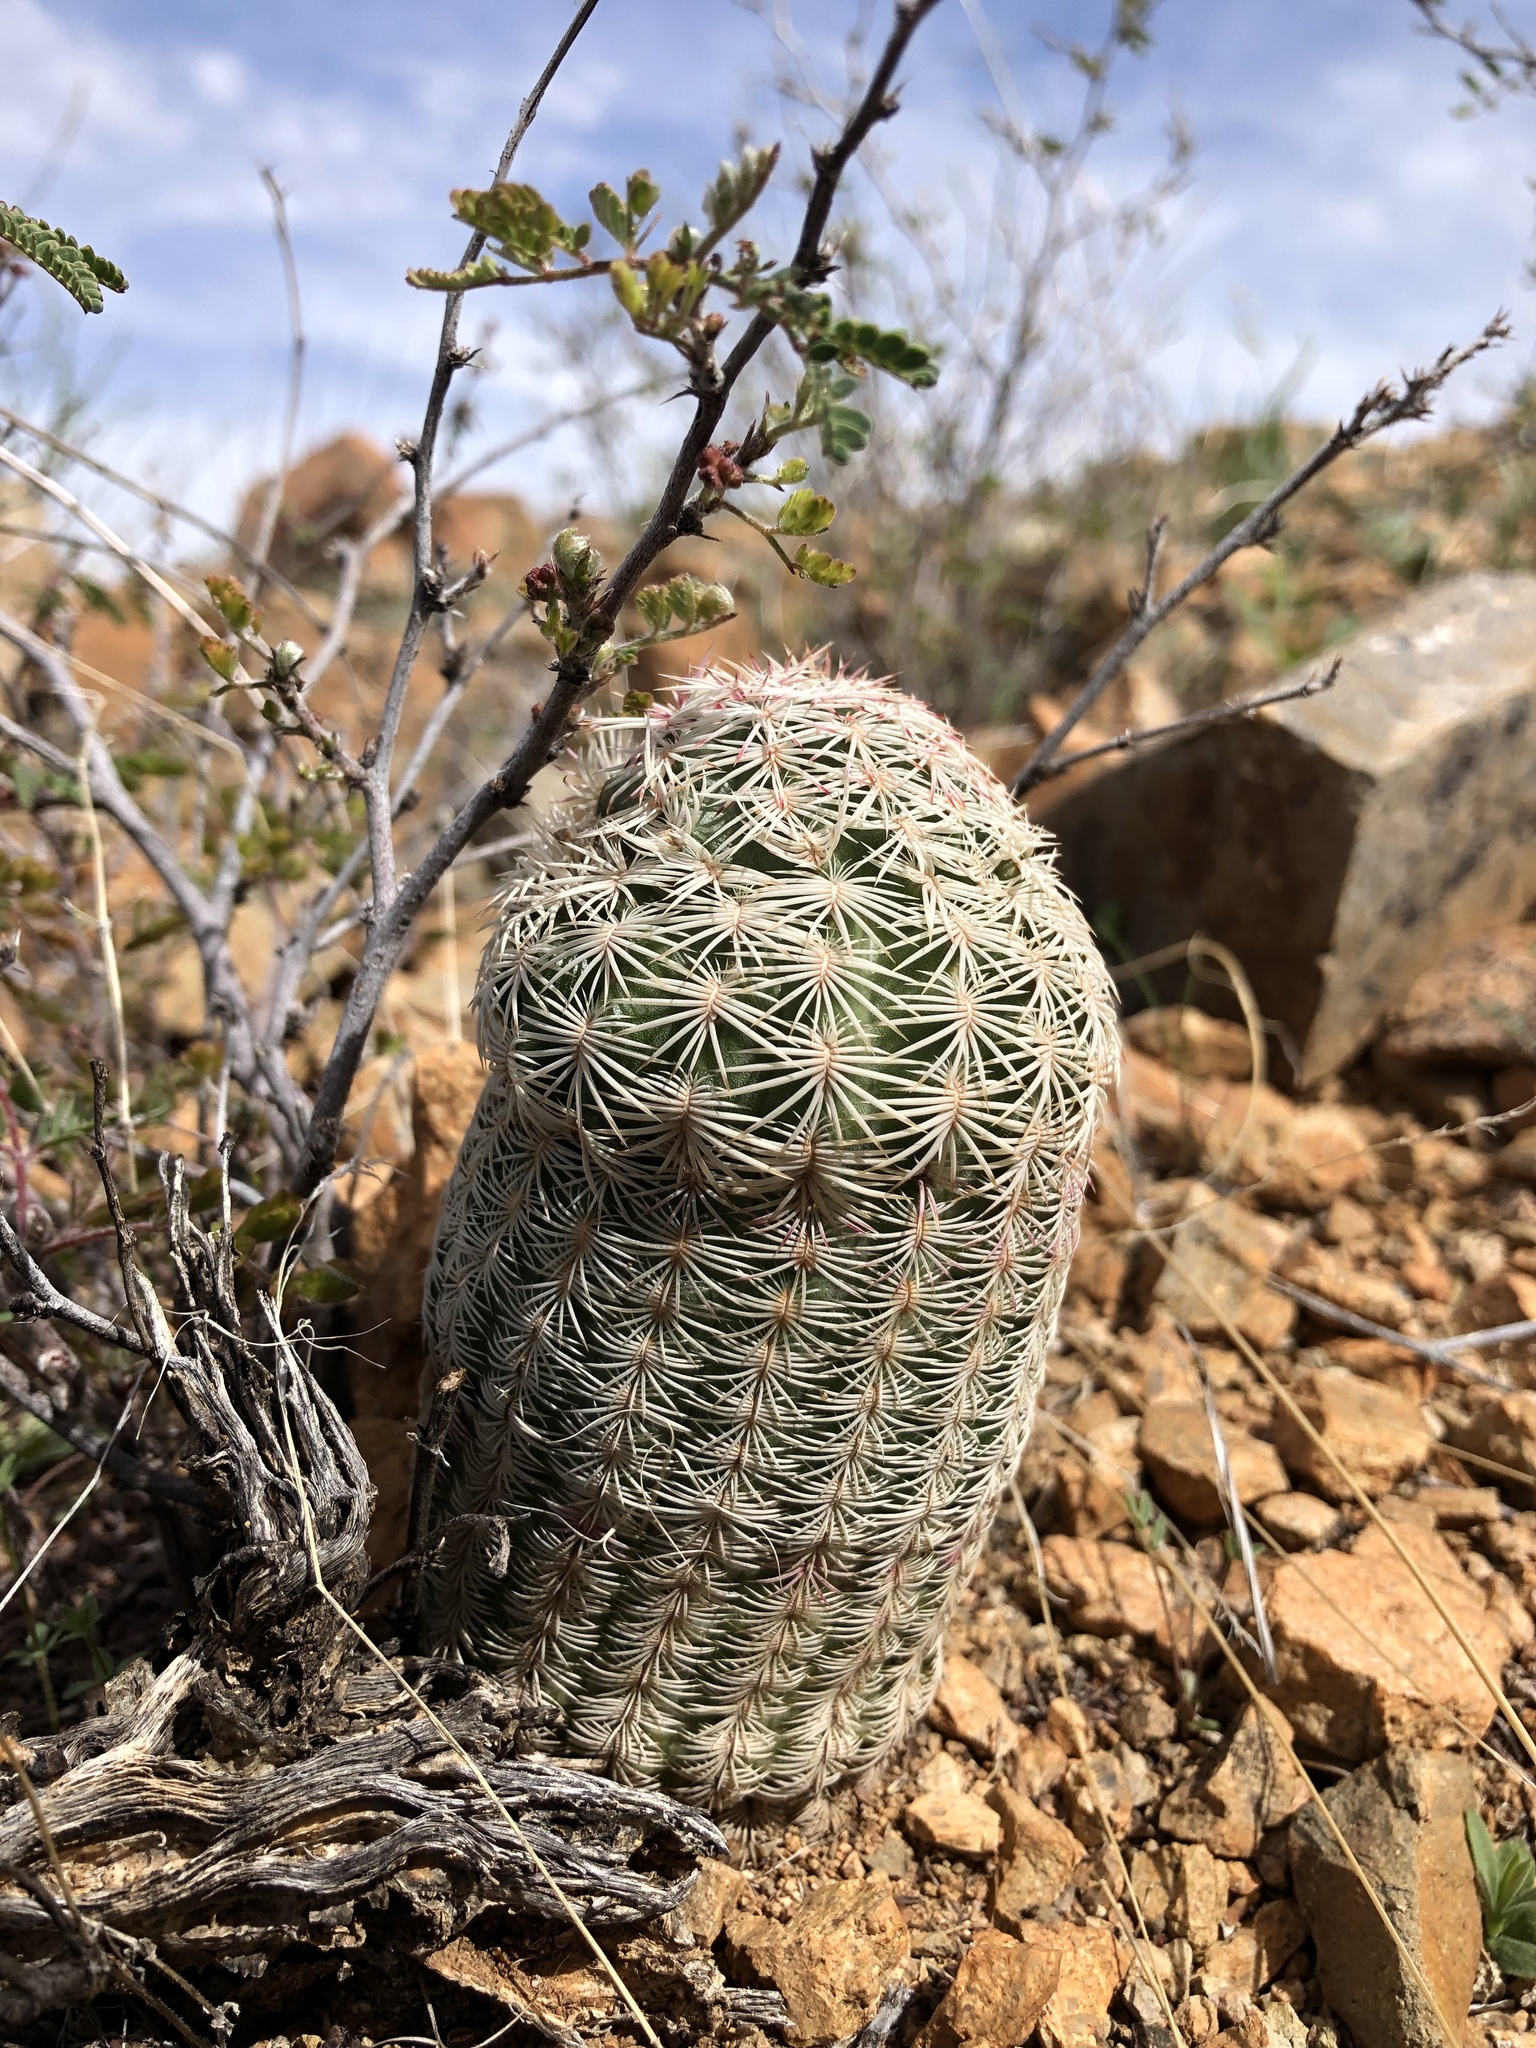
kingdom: Plantae
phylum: Tracheophyta
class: Magnoliopsida
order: Caryophyllales
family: Cactaceae
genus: Echinocereus
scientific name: Echinocereus rigidissimus
